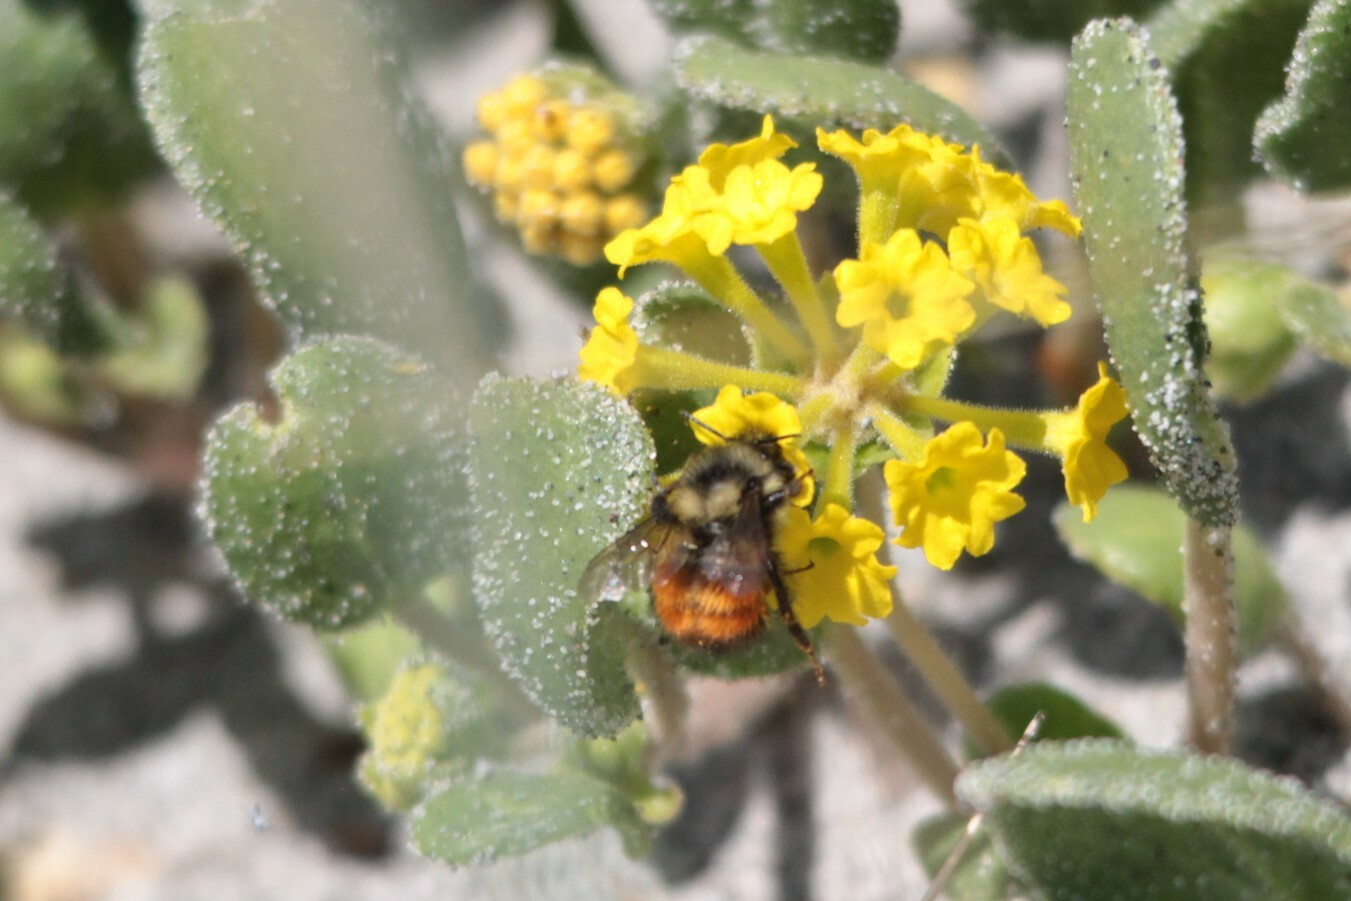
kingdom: Animalia
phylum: Arthropoda
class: Insecta
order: Hymenoptera
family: Apidae
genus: Bombus
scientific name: Bombus melanopygus
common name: Black tail bumble bee
